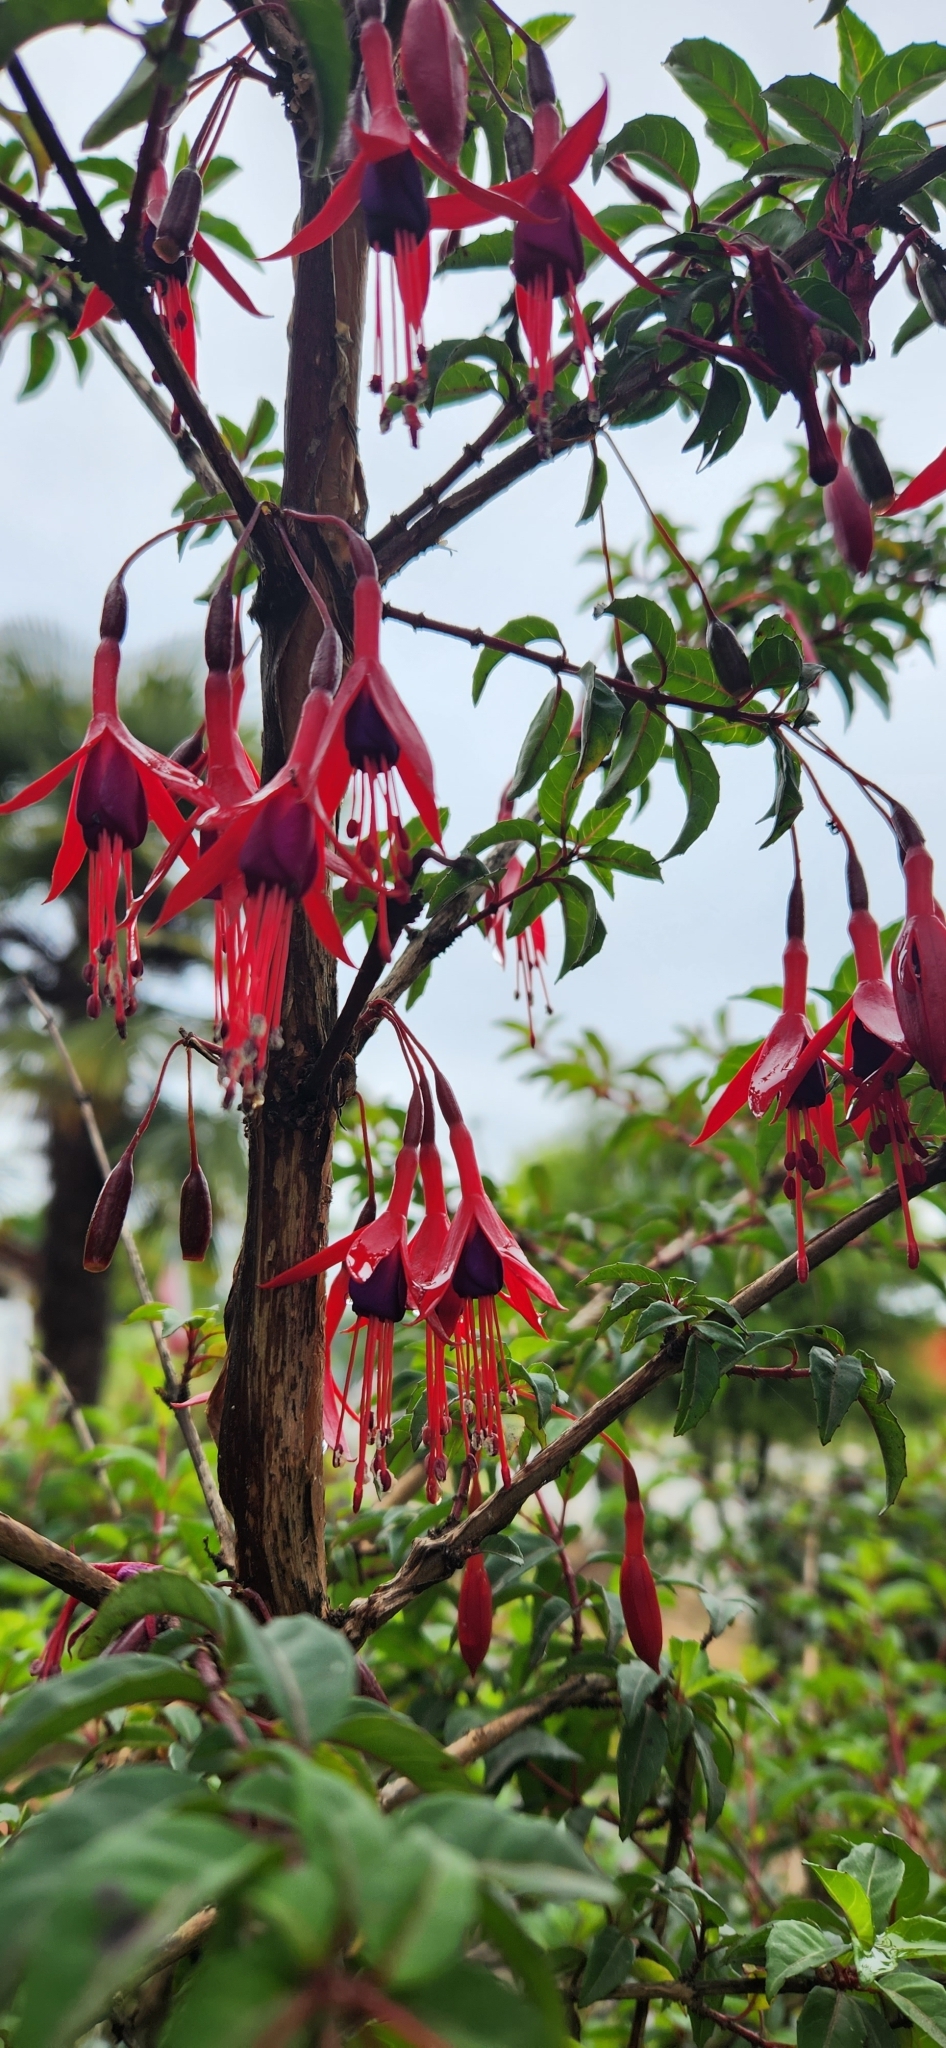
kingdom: Plantae
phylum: Tracheophyta
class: Magnoliopsida
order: Myrtales
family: Onagraceae
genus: Fuchsia
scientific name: Fuchsia magellanica
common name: Hardy fuchsia
